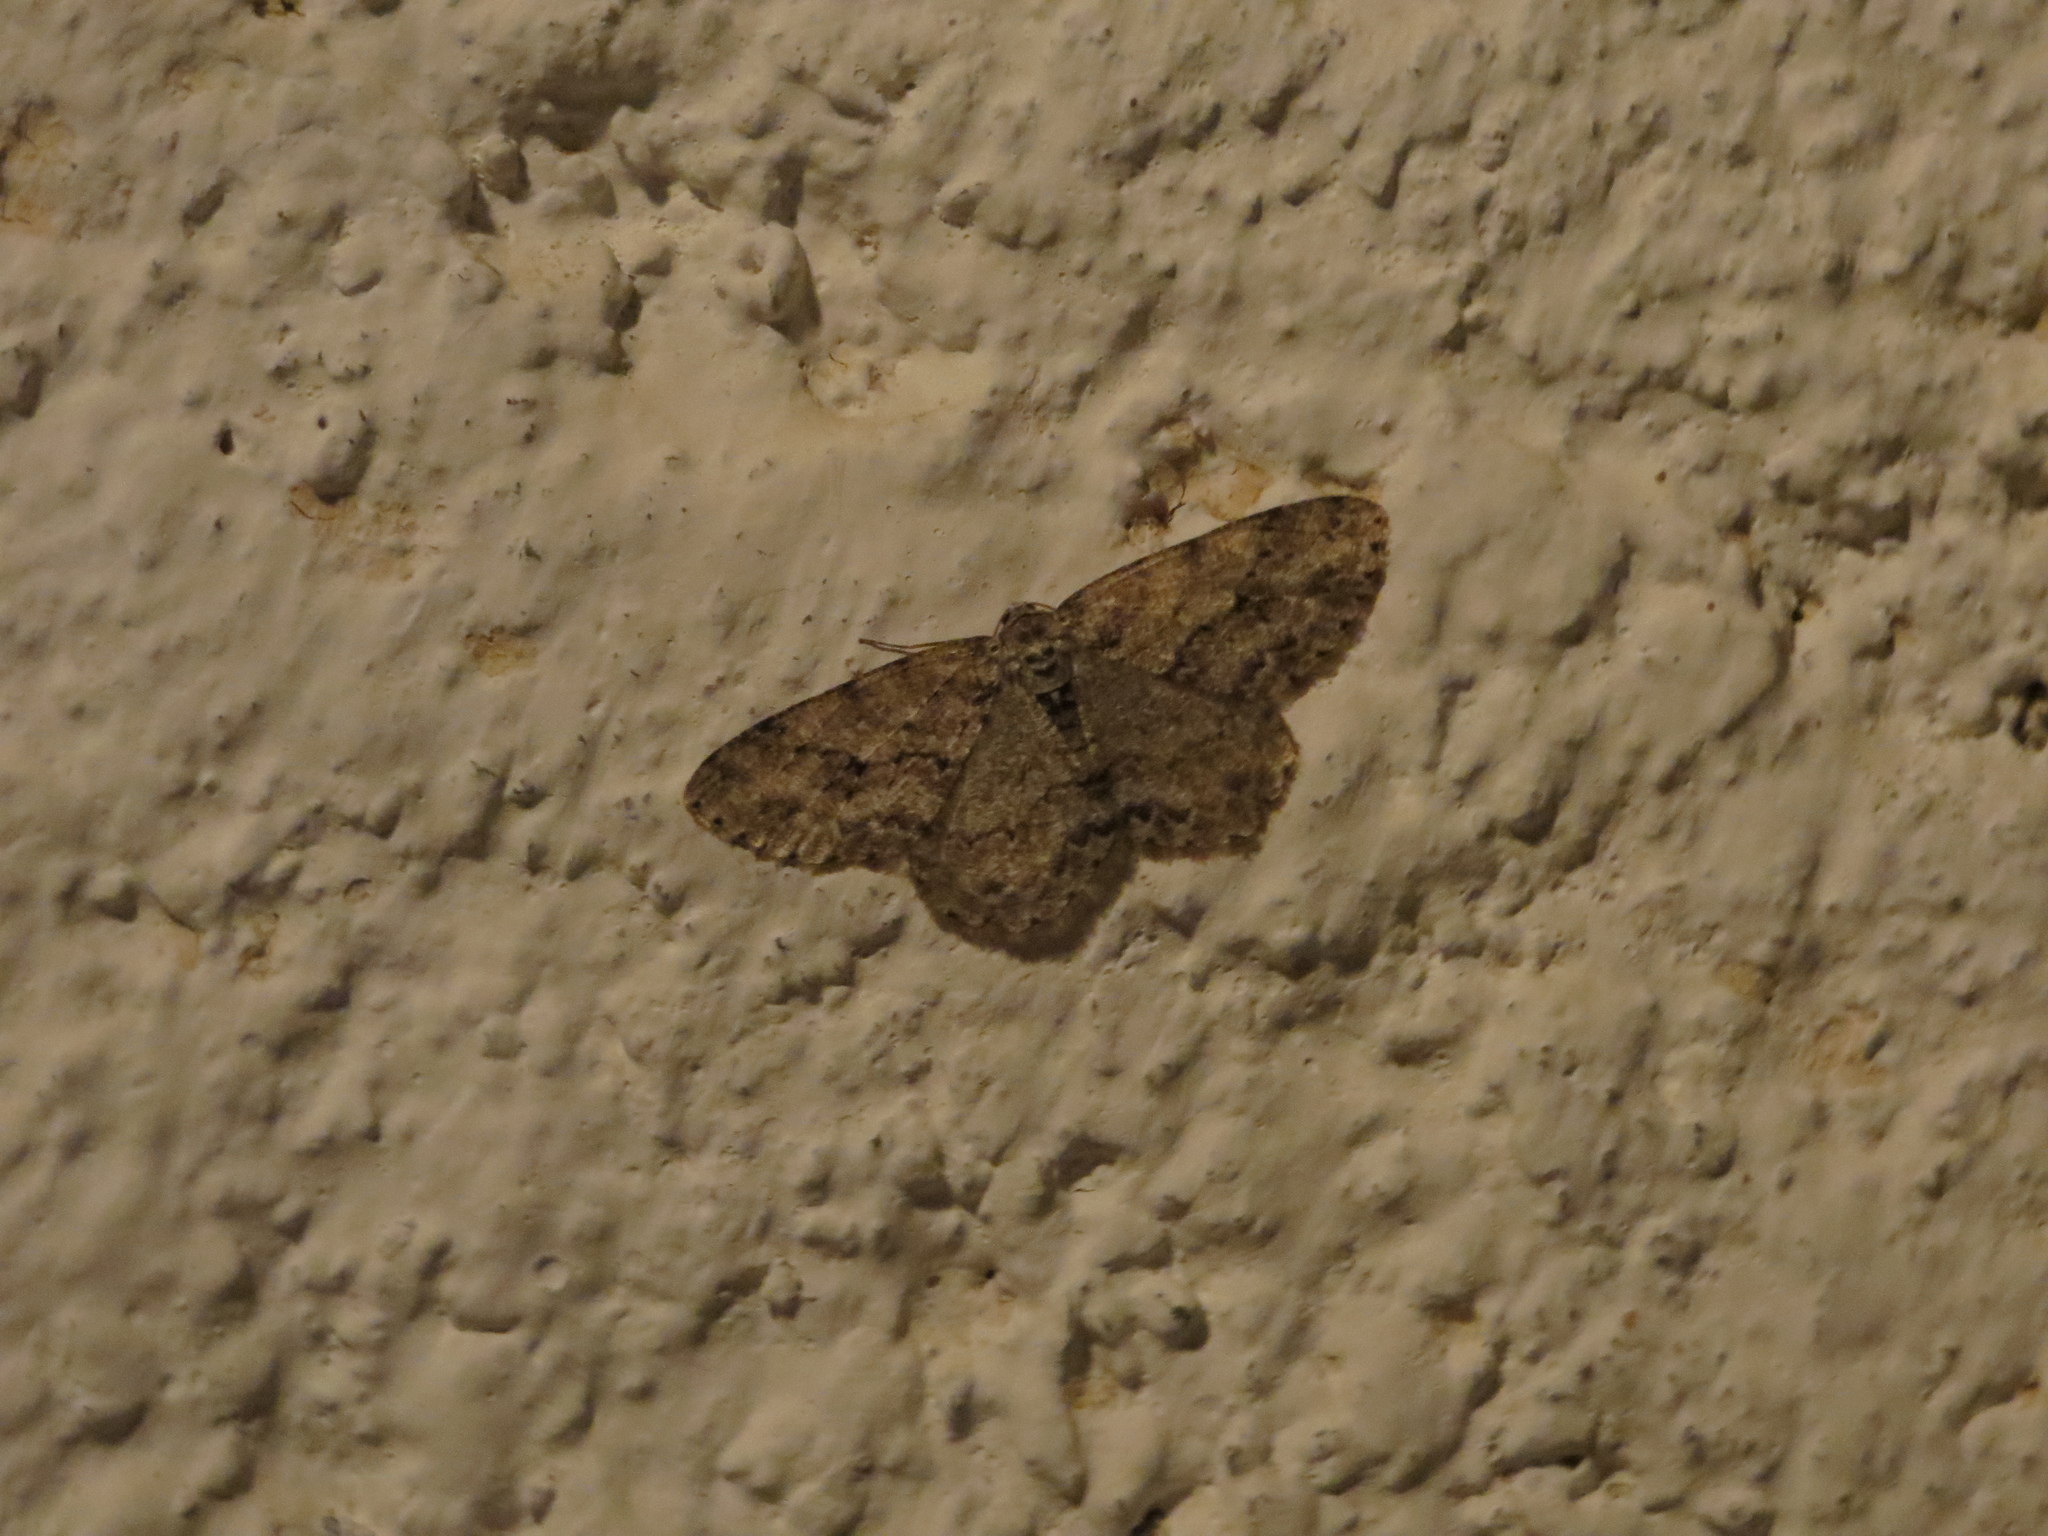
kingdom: Animalia
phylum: Arthropoda
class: Insecta
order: Lepidoptera
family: Geometridae
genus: Ectropis
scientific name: Ectropis crepuscularia
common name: Engrailed
